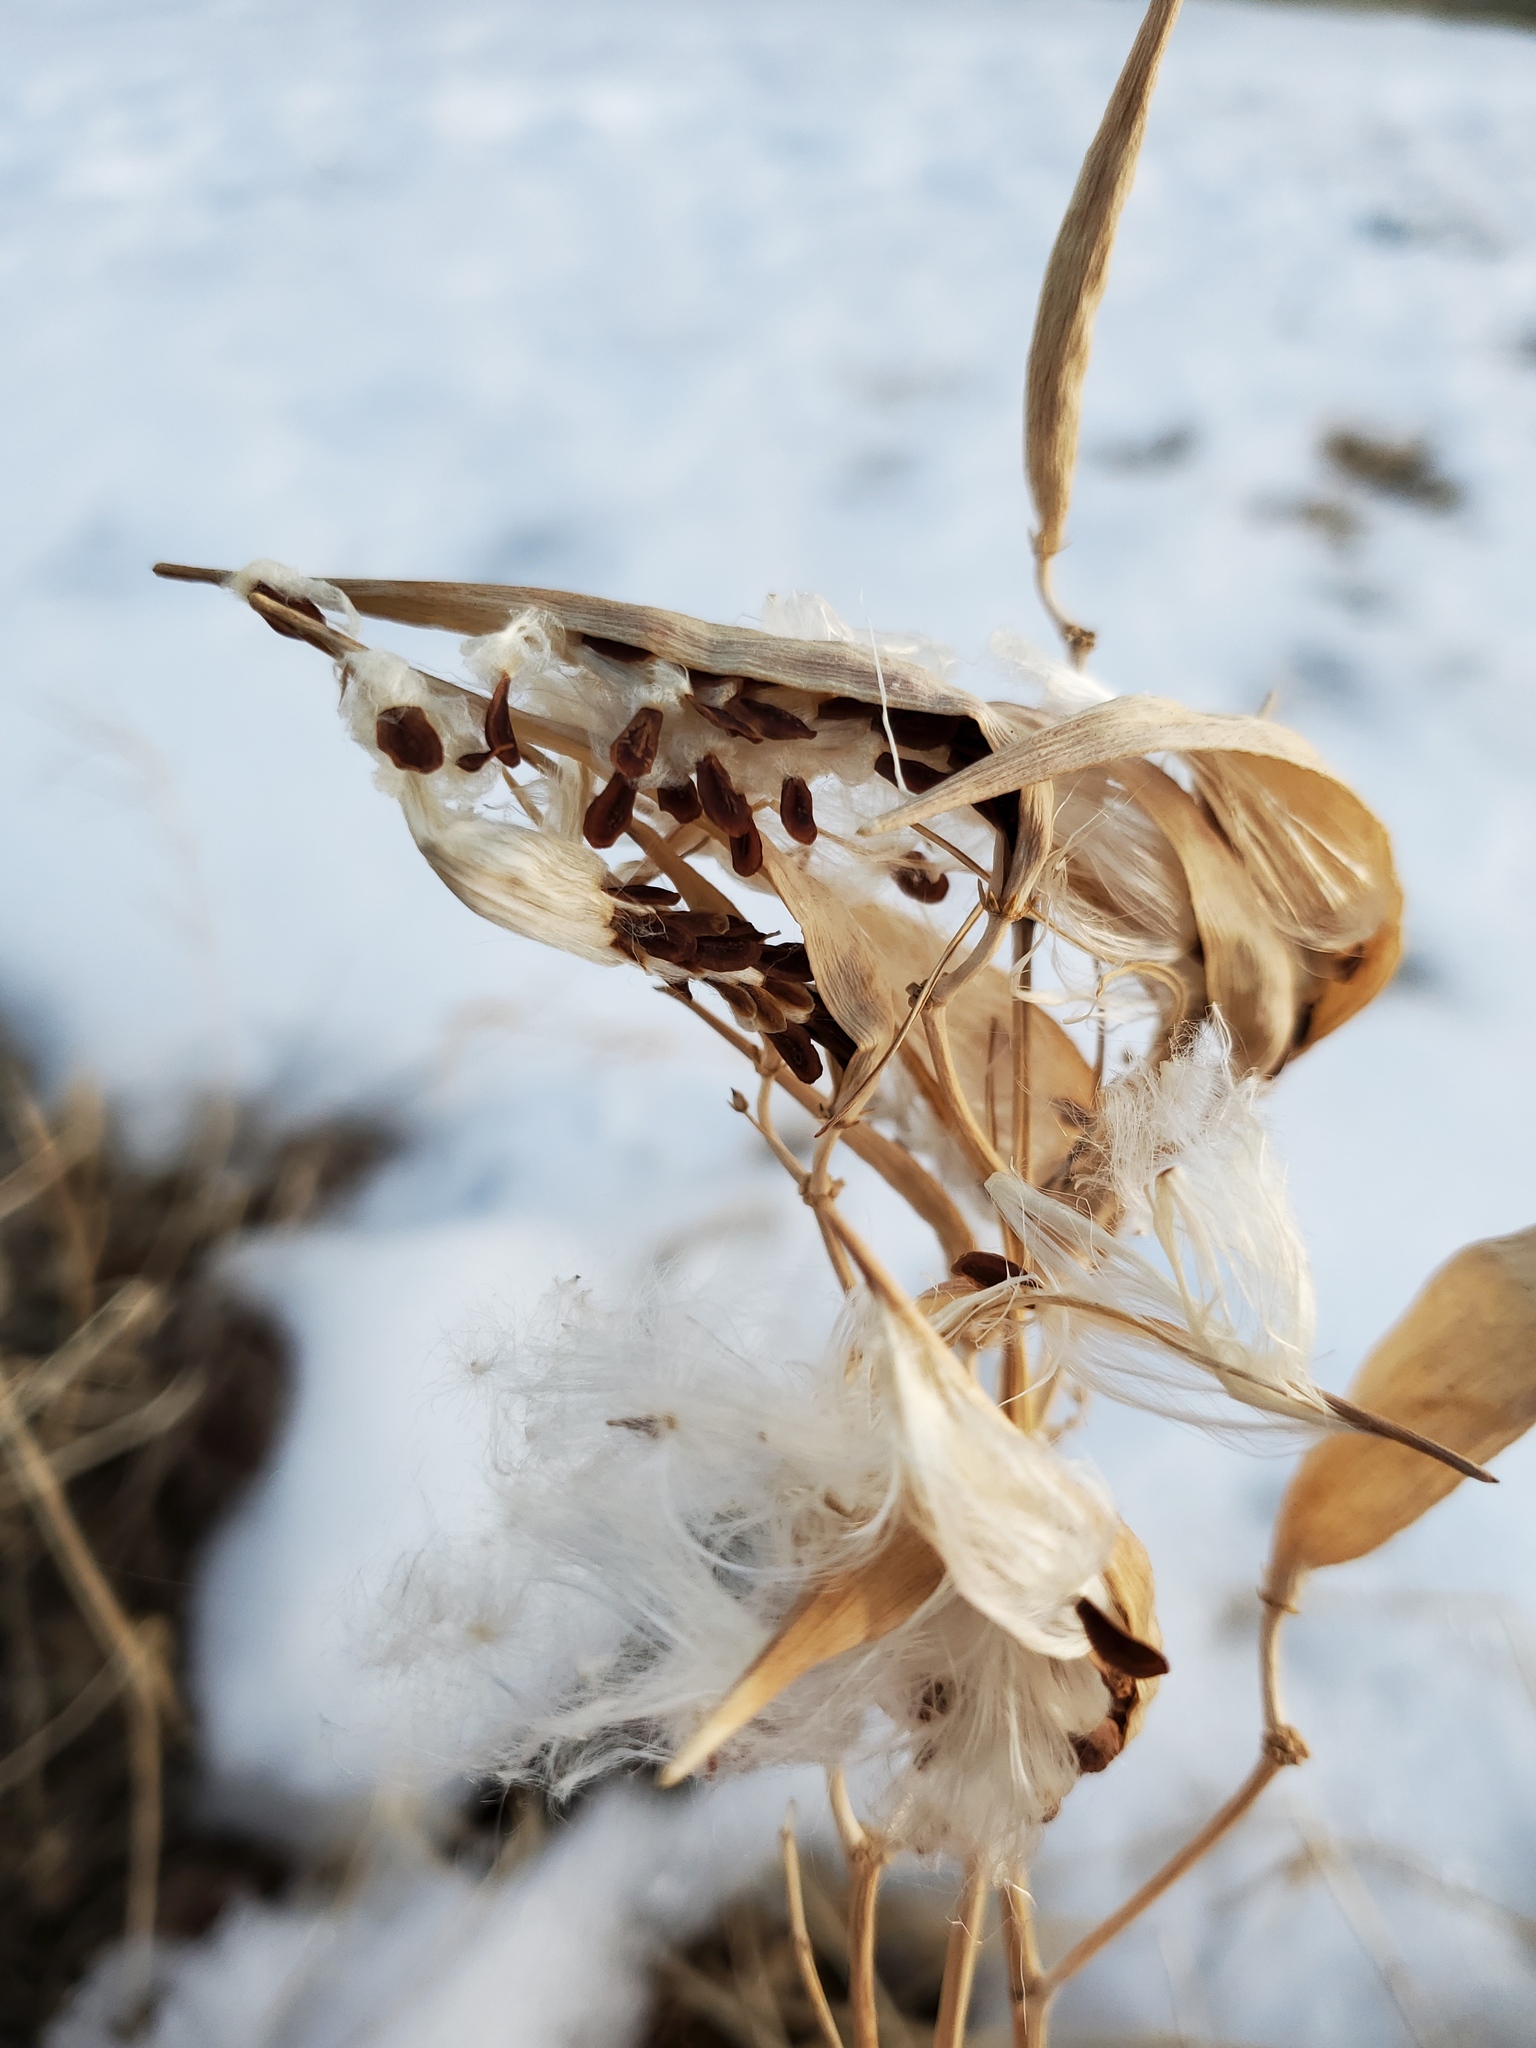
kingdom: Plantae
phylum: Tracheophyta
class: Magnoliopsida
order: Gentianales
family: Apocynaceae
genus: Asclepias
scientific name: Asclepias subverticillata
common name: Horsetail milkweed
